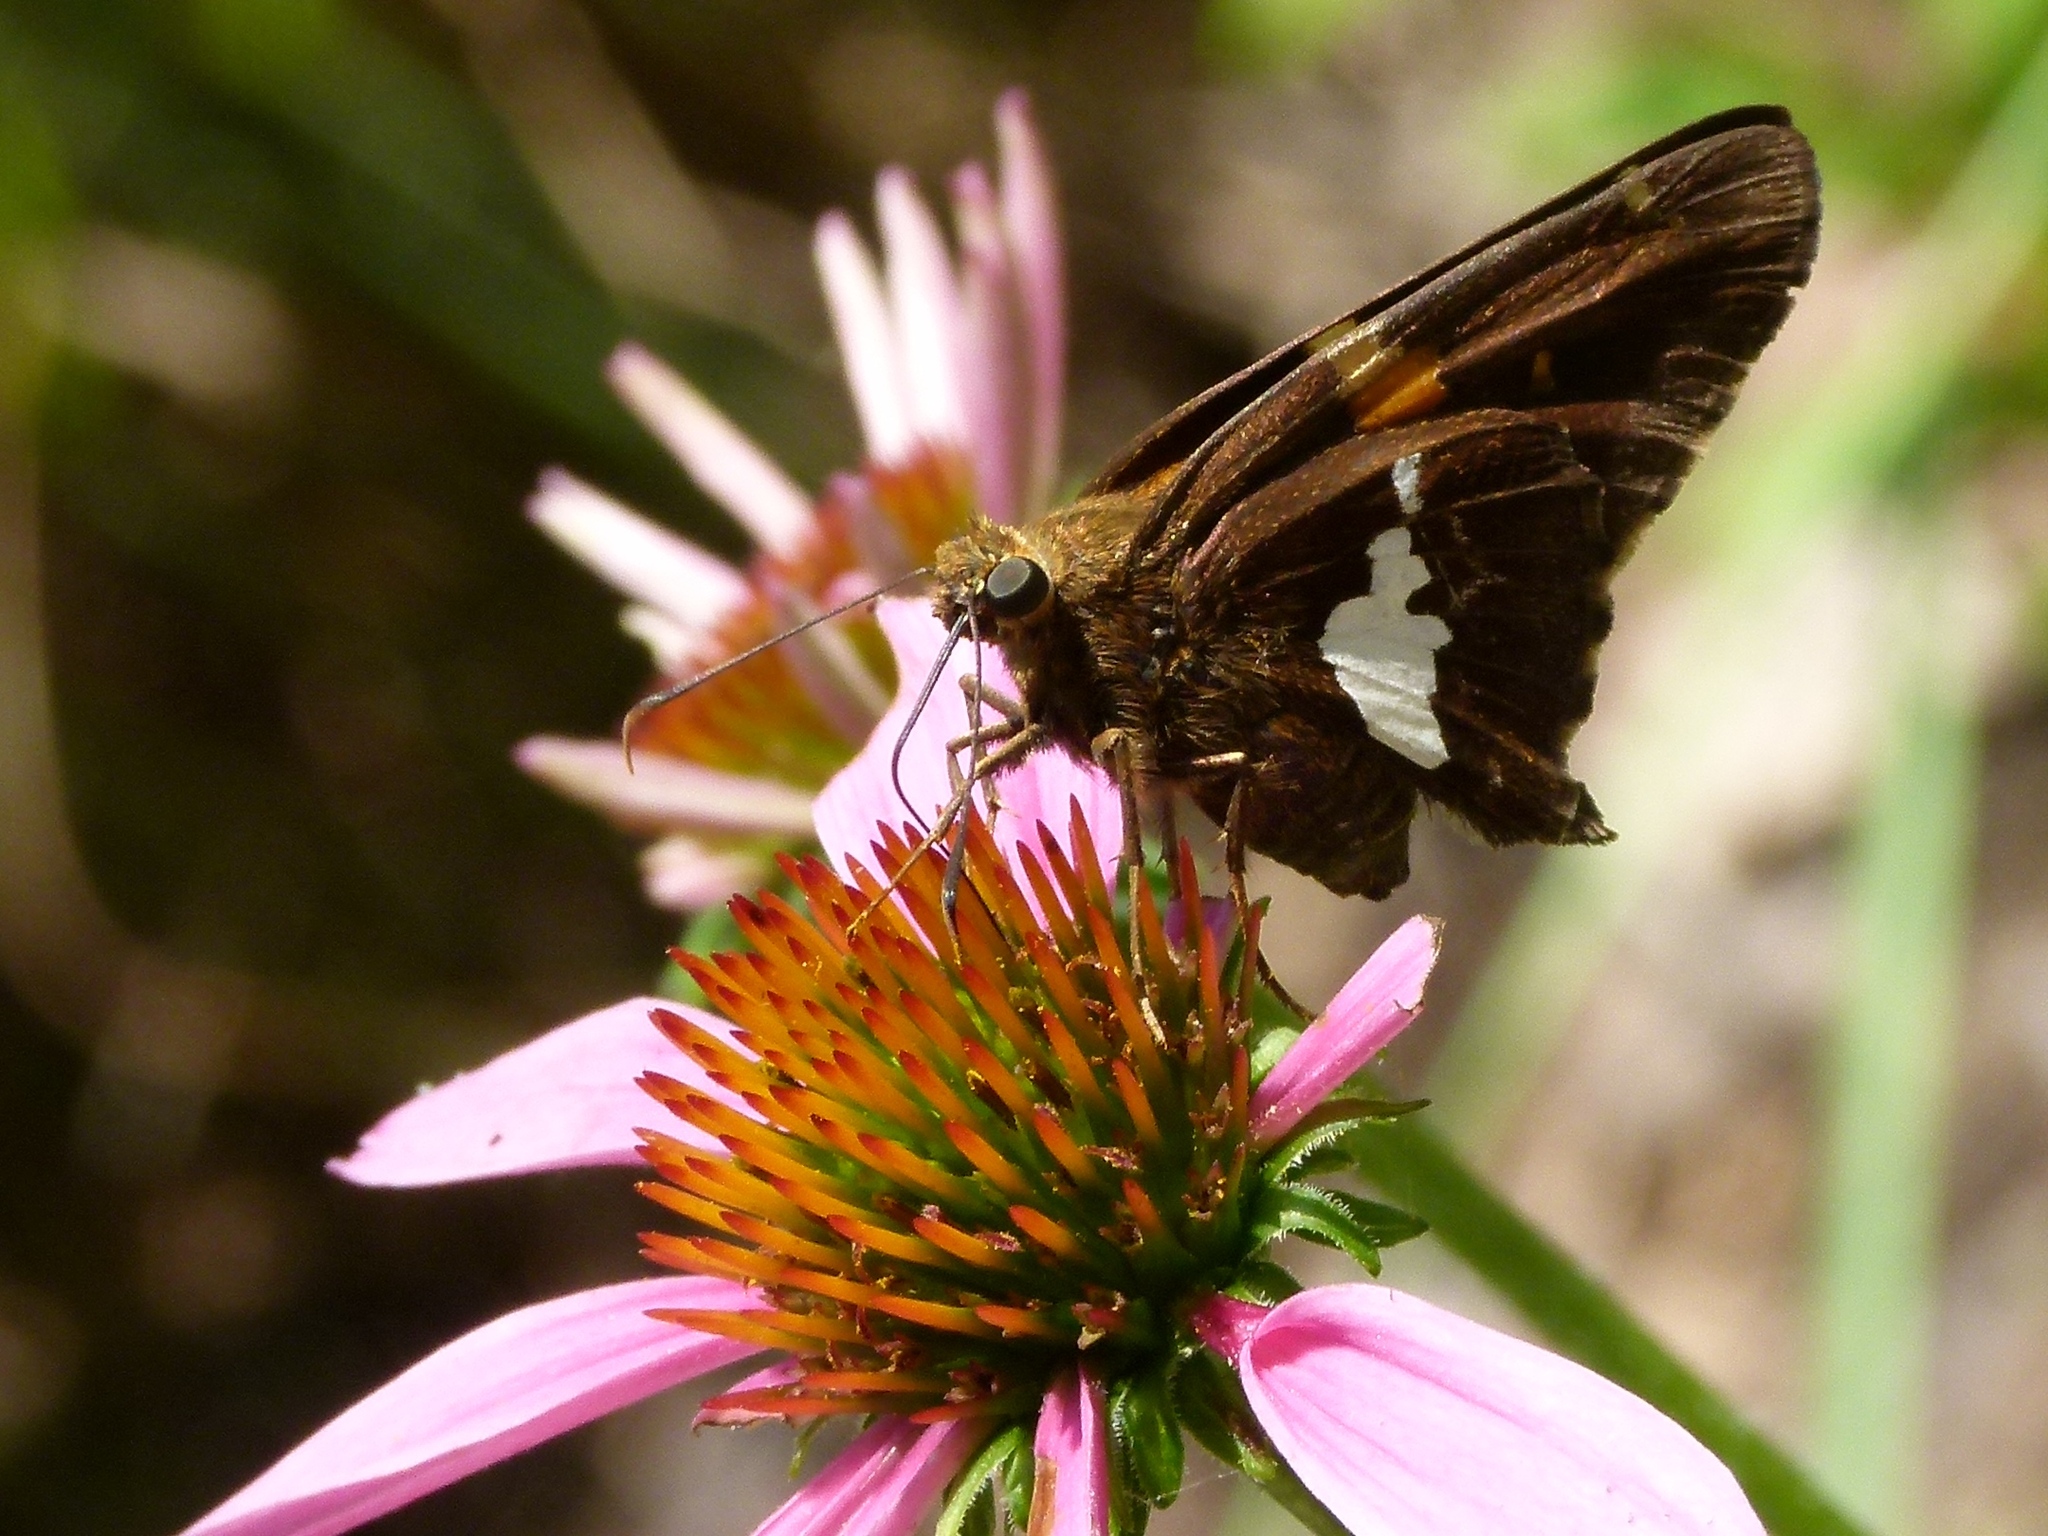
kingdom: Animalia
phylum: Arthropoda
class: Insecta
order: Lepidoptera
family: Hesperiidae
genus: Epargyreus
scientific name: Epargyreus clarus
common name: Silver-spotted skipper
